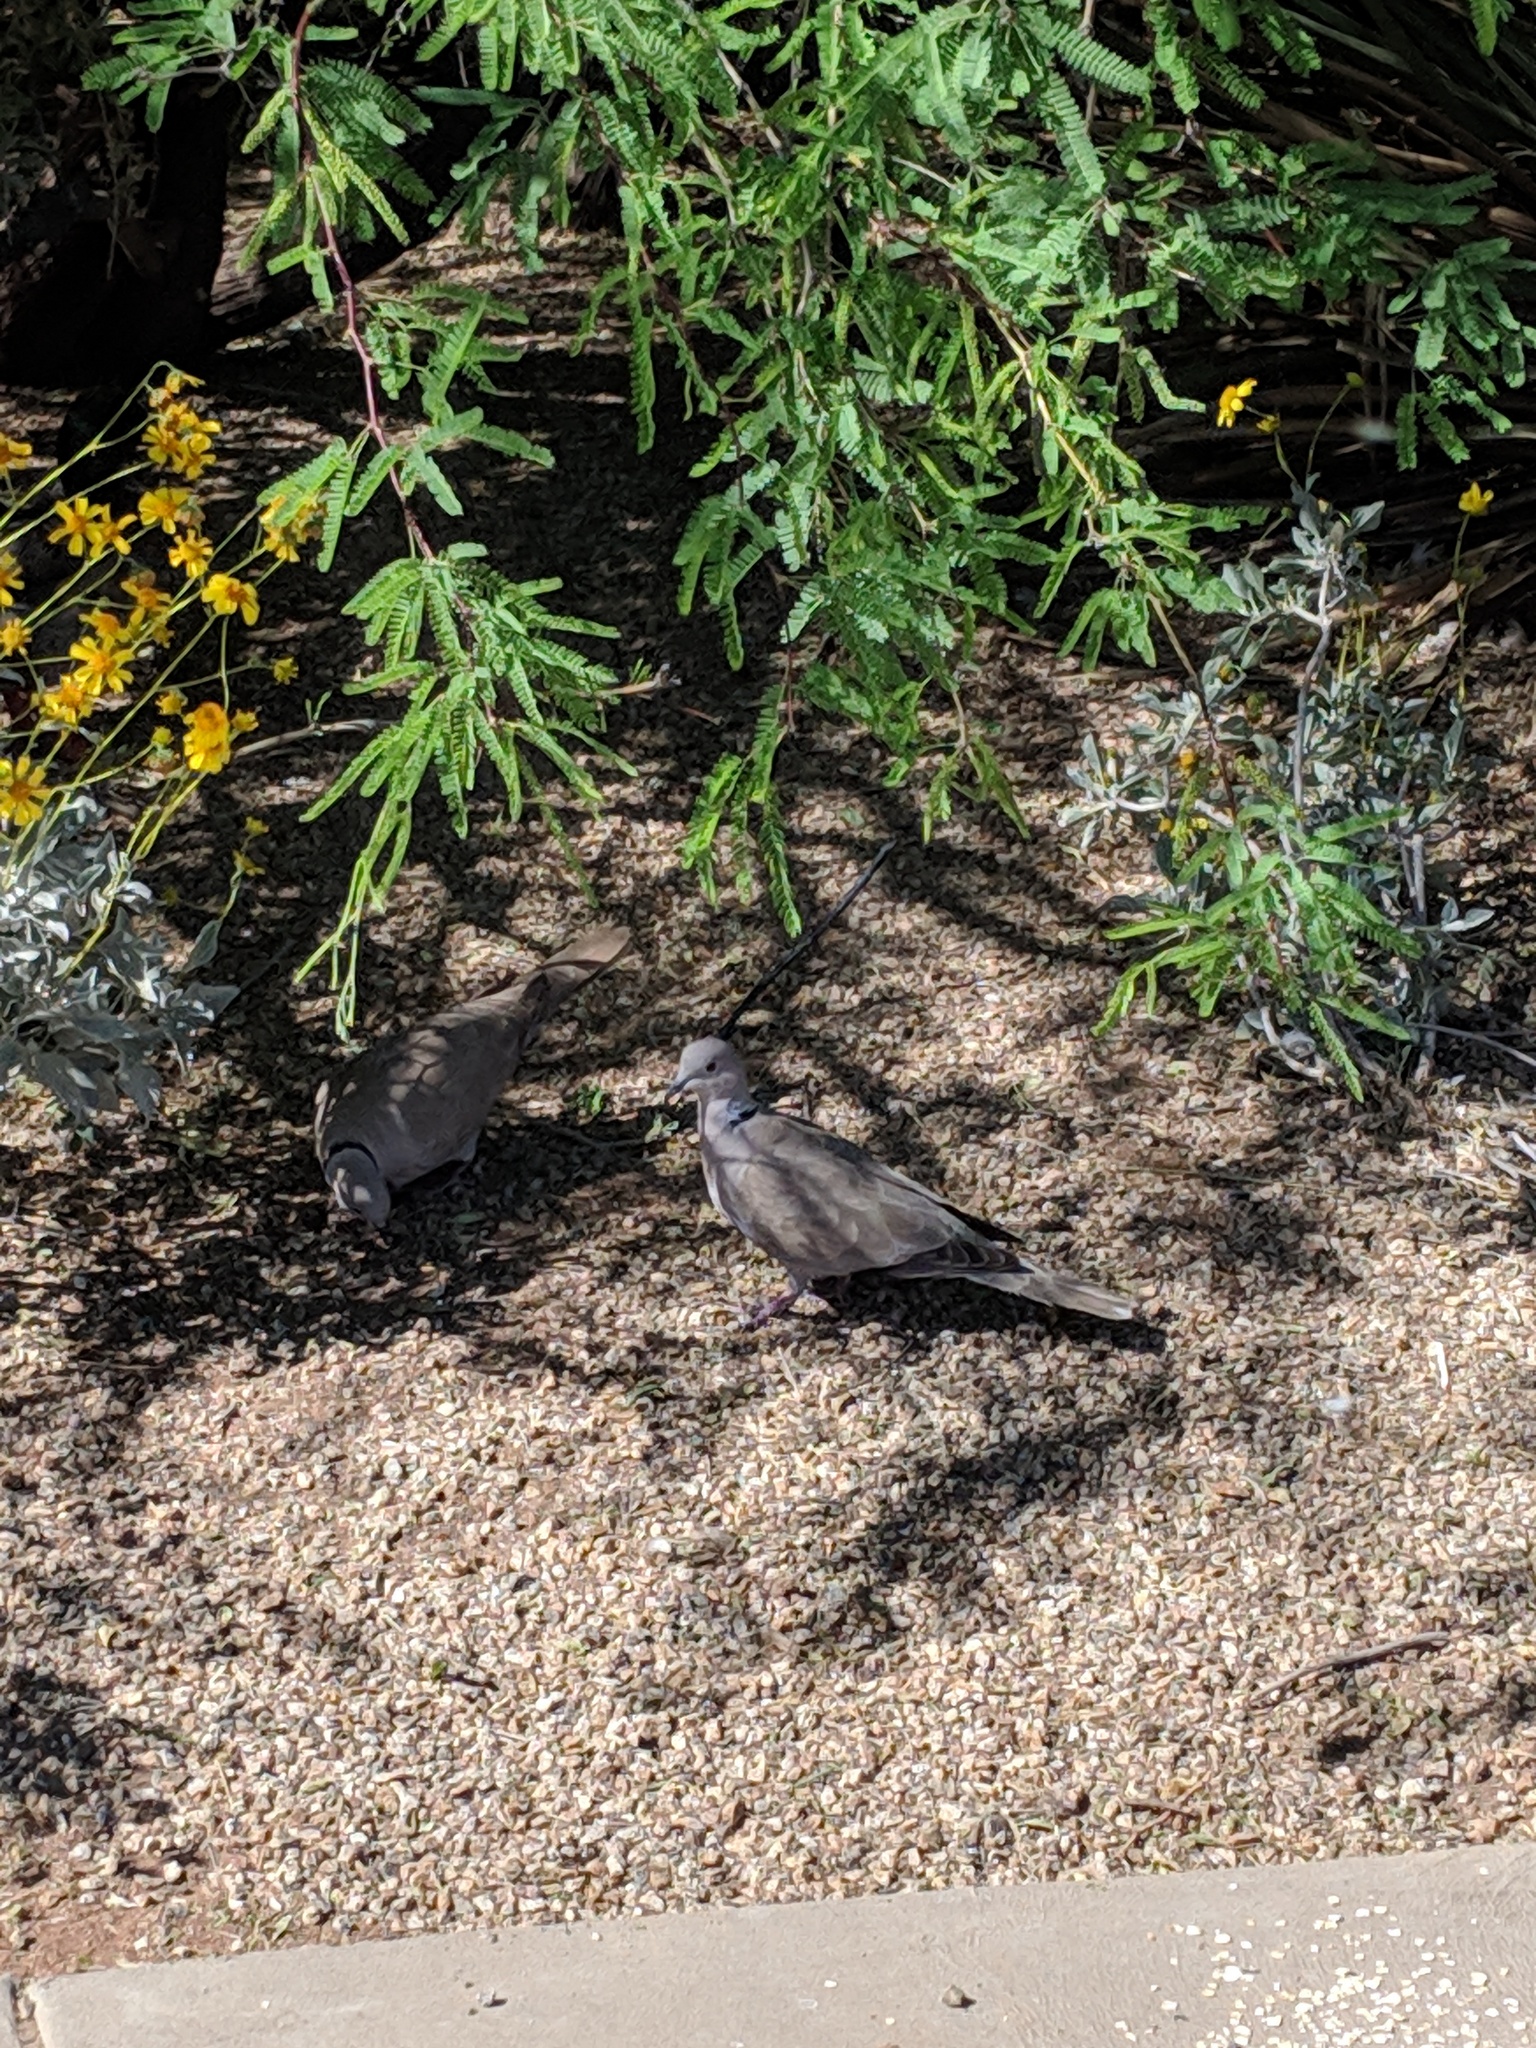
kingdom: Animalia
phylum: Chordata
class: Aves
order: Columbiformes
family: Columbidae
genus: Streptopelia
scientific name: Streptopelia decaocto
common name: Eurasian collared dove
